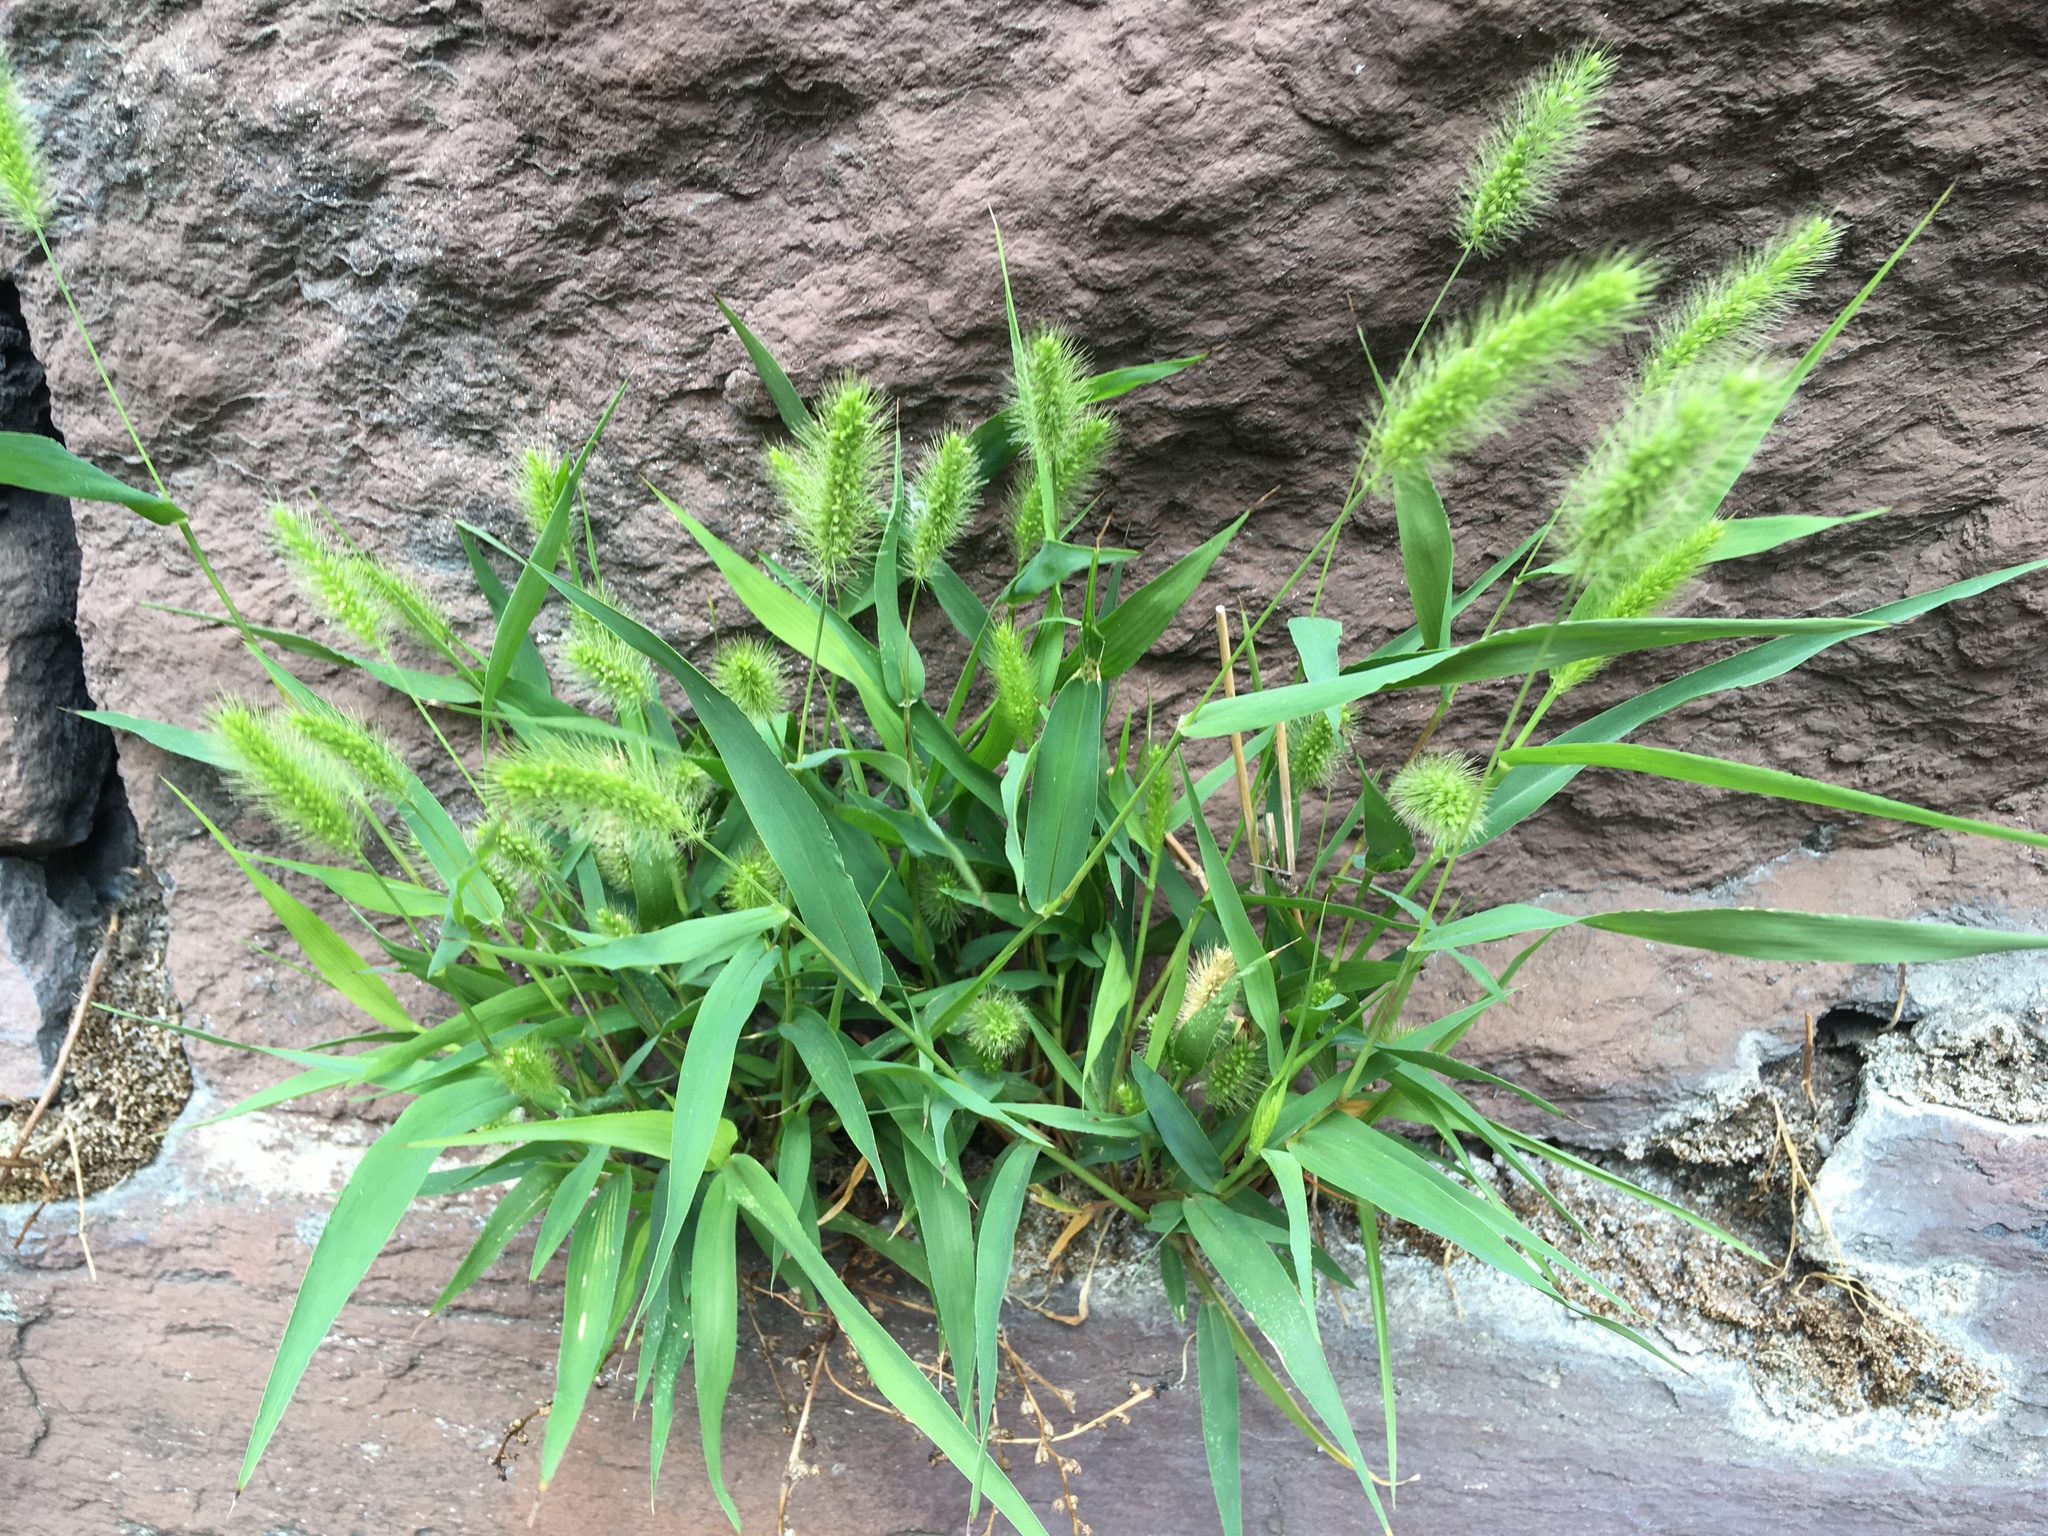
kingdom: Plantae
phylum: Tracheophyta
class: Liliopsida
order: Poales
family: Poaceae
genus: Setaria
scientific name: Setaria viridis
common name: Green bristlegrass
